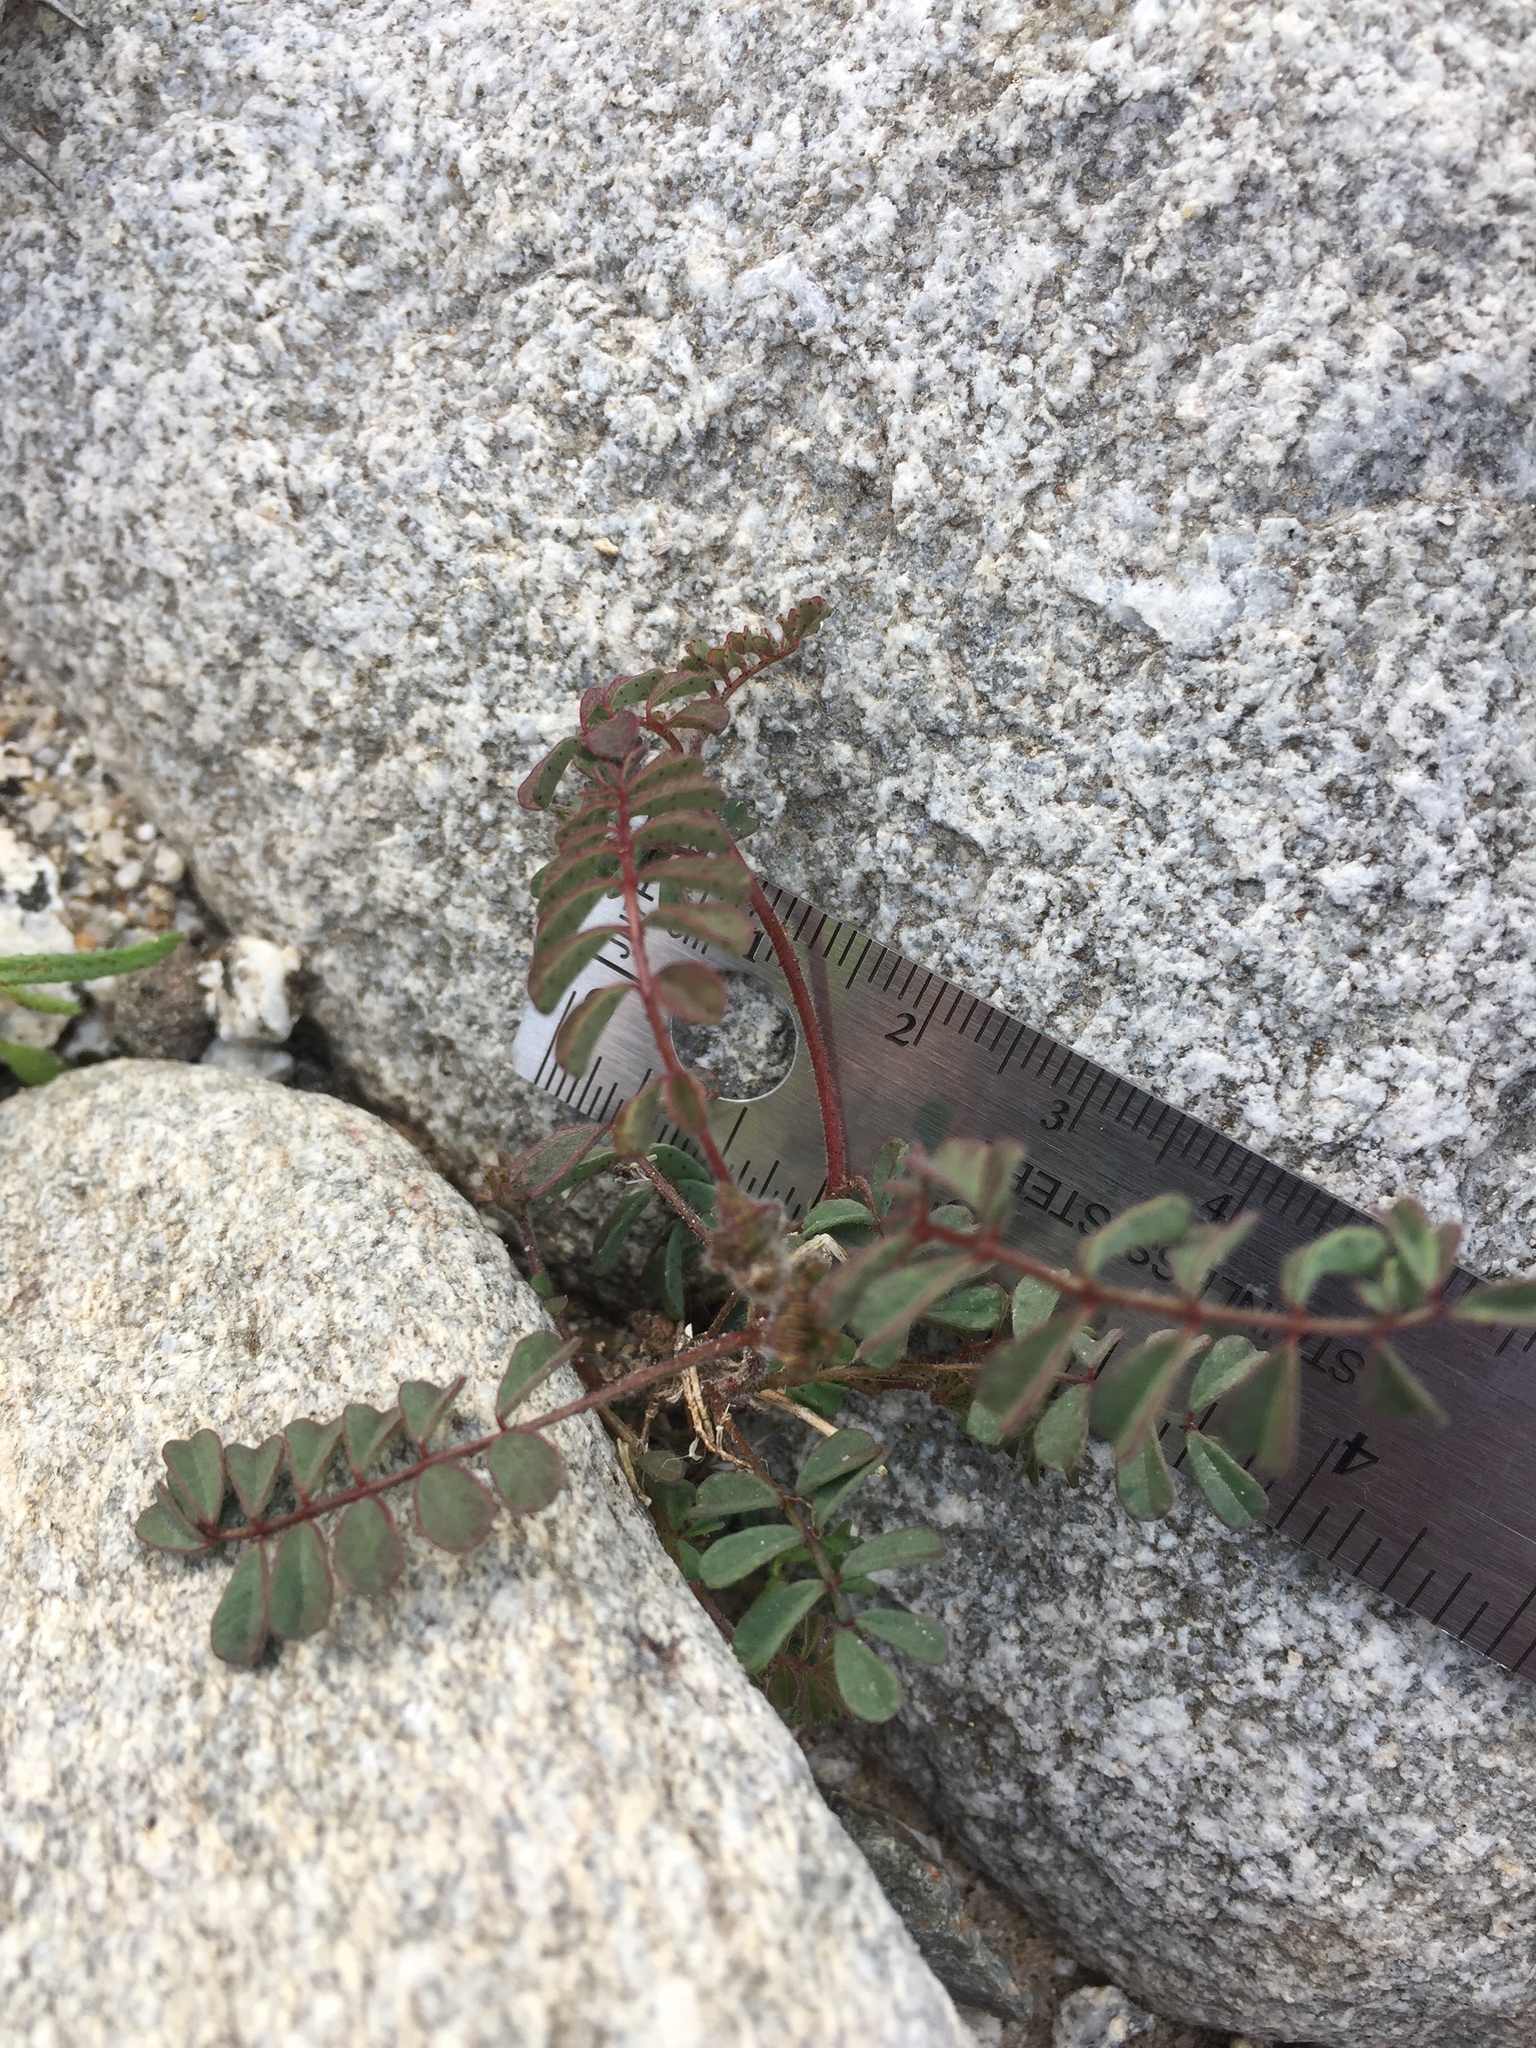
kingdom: Plantae
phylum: Tracheophyta
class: Magnoliopsida
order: Fabales
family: Fabaceae
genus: Dalea
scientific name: Dalea mollis
